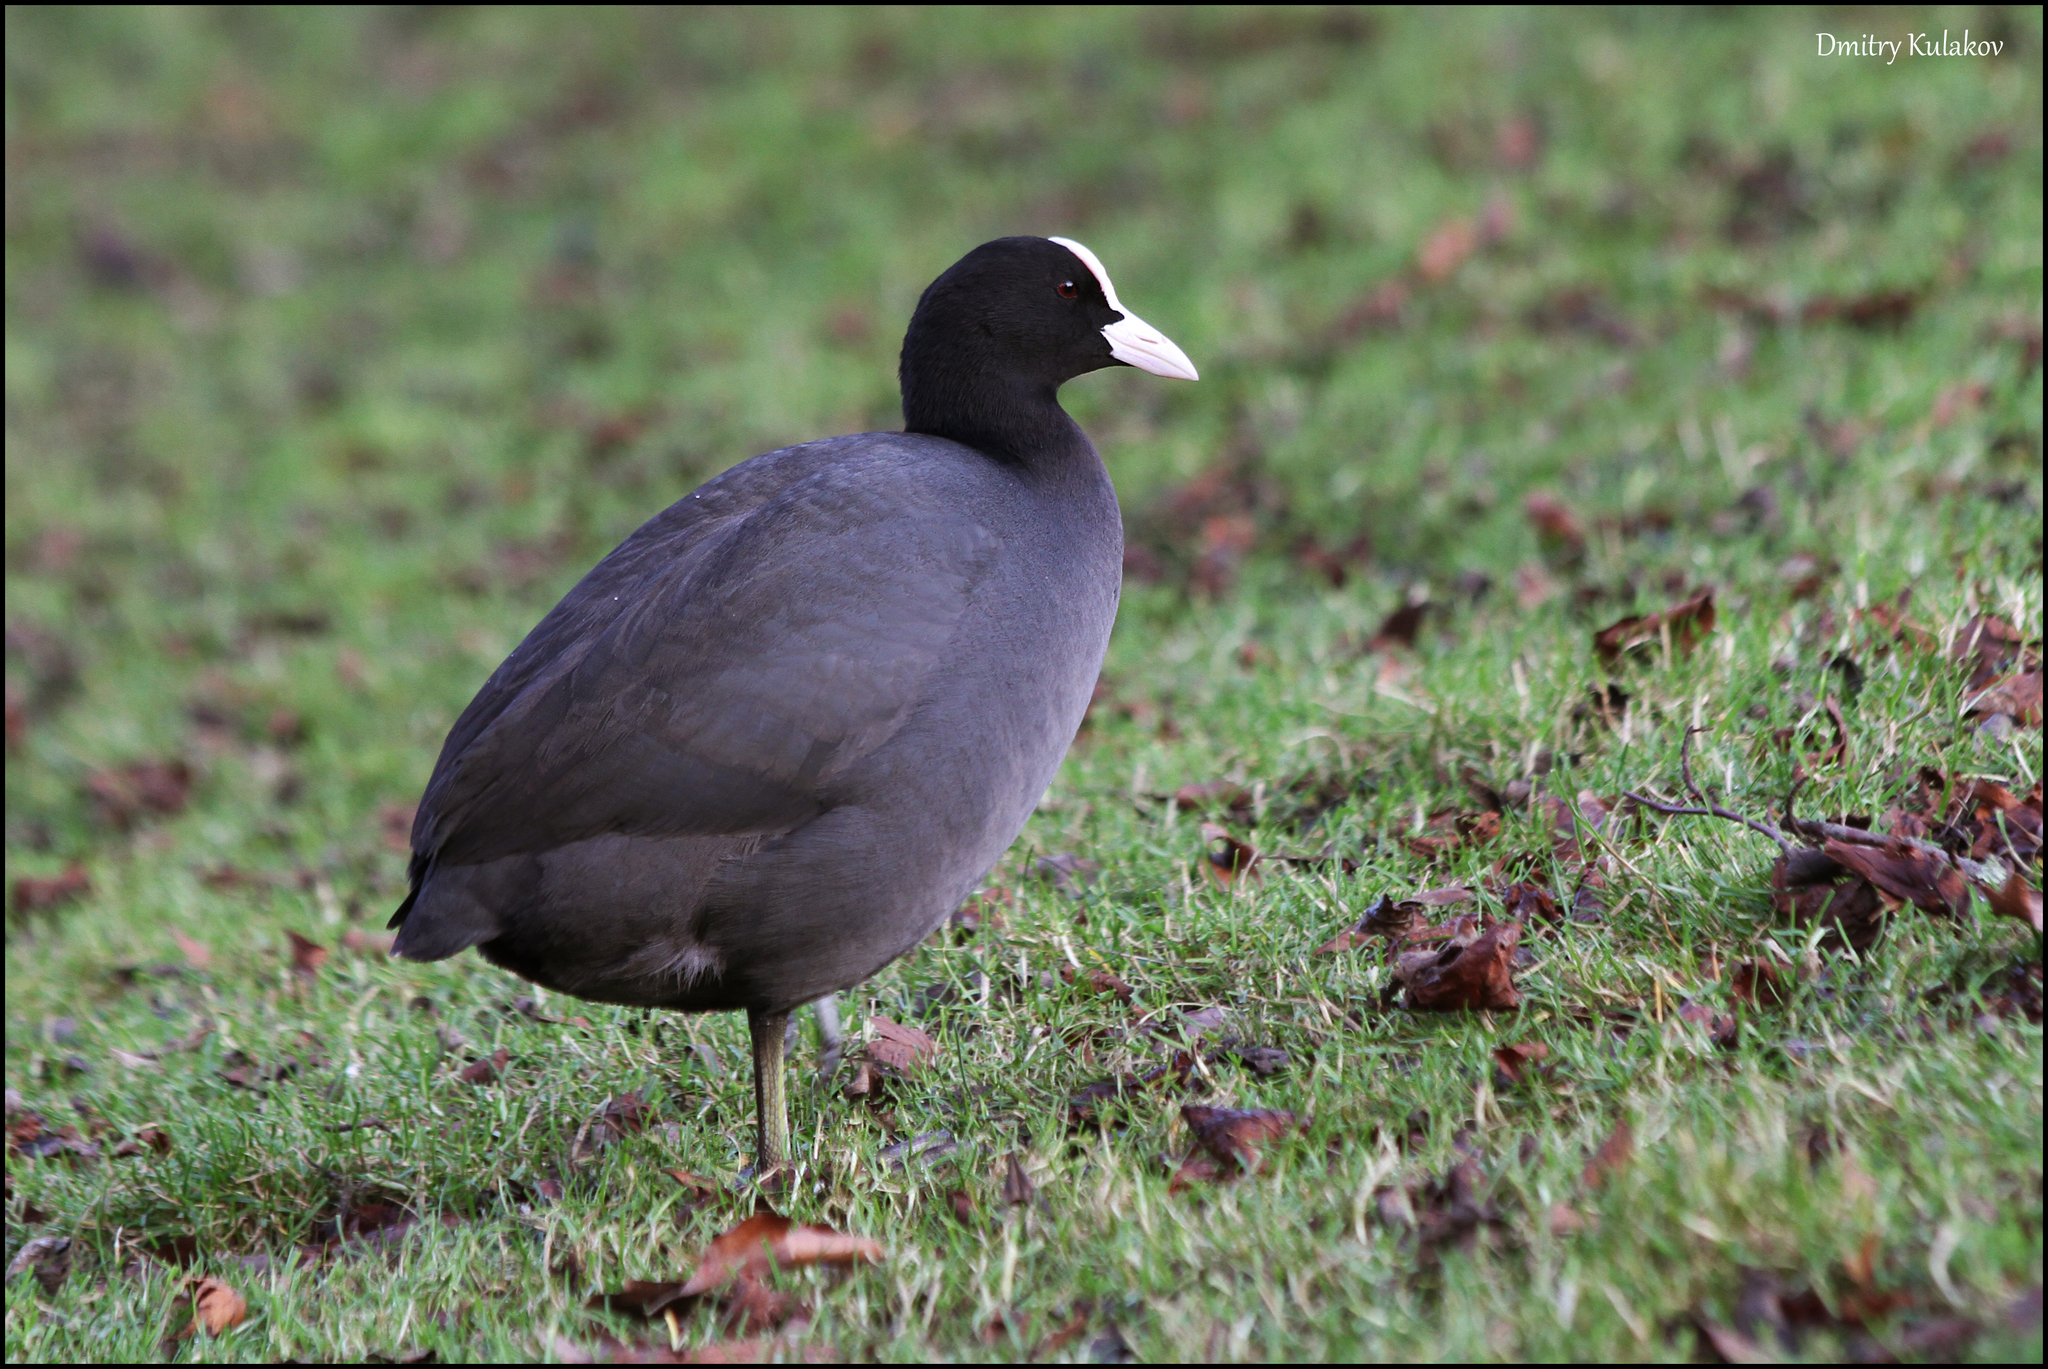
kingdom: Animalia
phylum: Chordata
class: Aves
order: Gruiformes
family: Rallidae
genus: Fulica
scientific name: Fulica atra
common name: Eurasian coot
